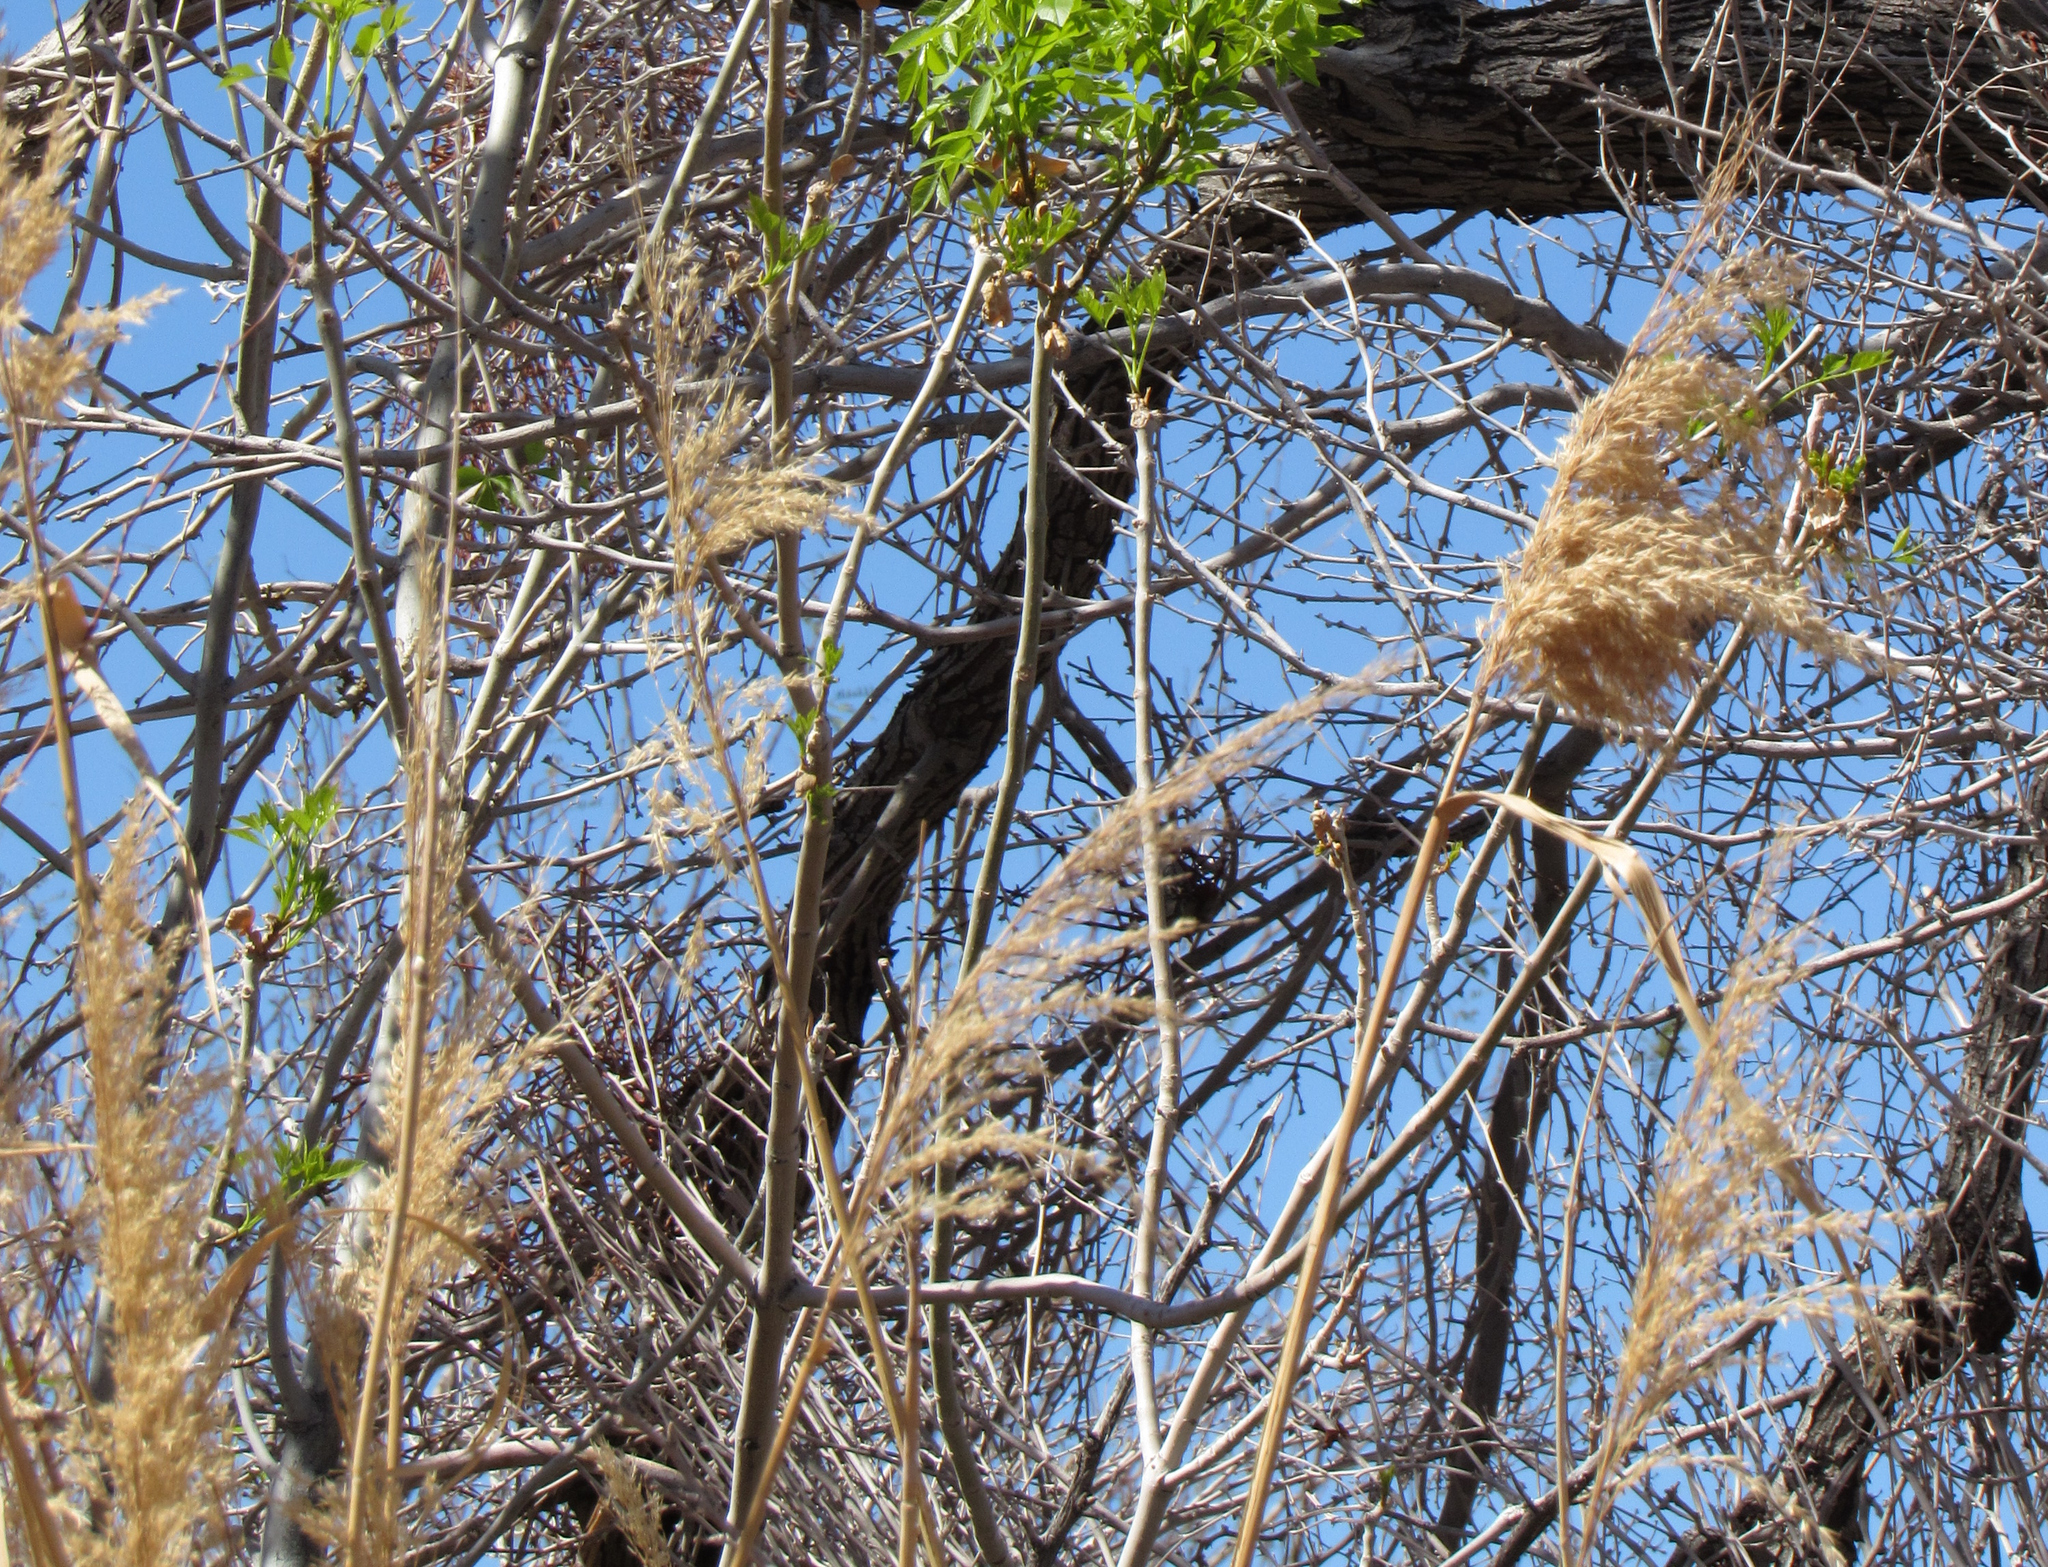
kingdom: Plantae
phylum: Tracheophyta
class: Liliopsida
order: Poales
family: Poaceae
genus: Phragmites
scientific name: Phragmites australis
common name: Common reed
